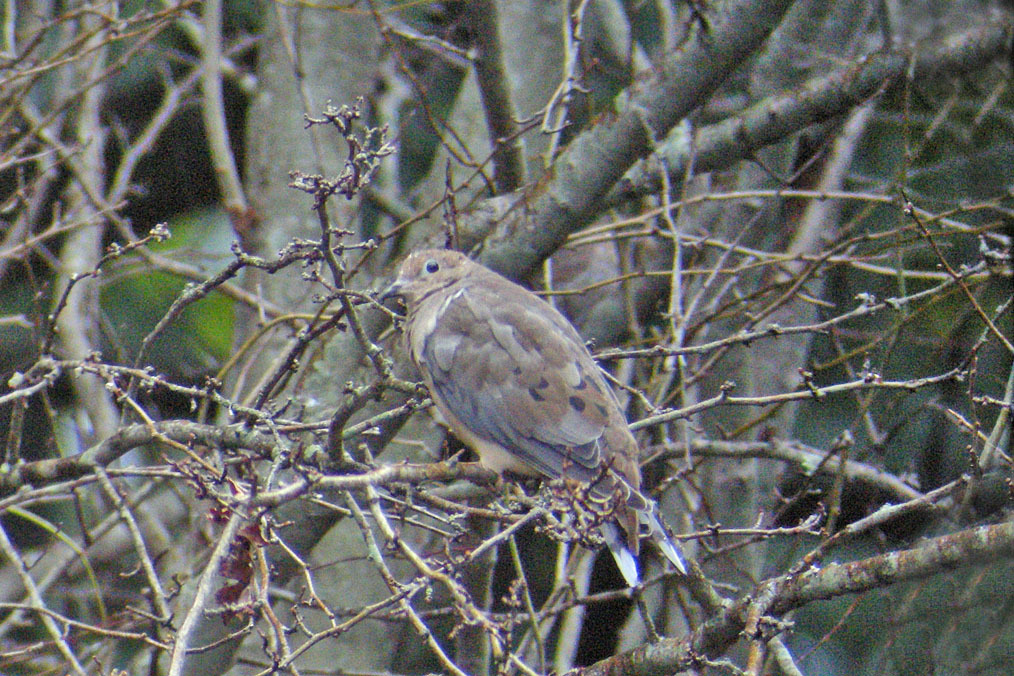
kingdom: Animalia
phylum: Chordata
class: Aves
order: Columbiformes
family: Columbidae
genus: Zenaida
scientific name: Zenaida macroura
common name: Mourning dove
